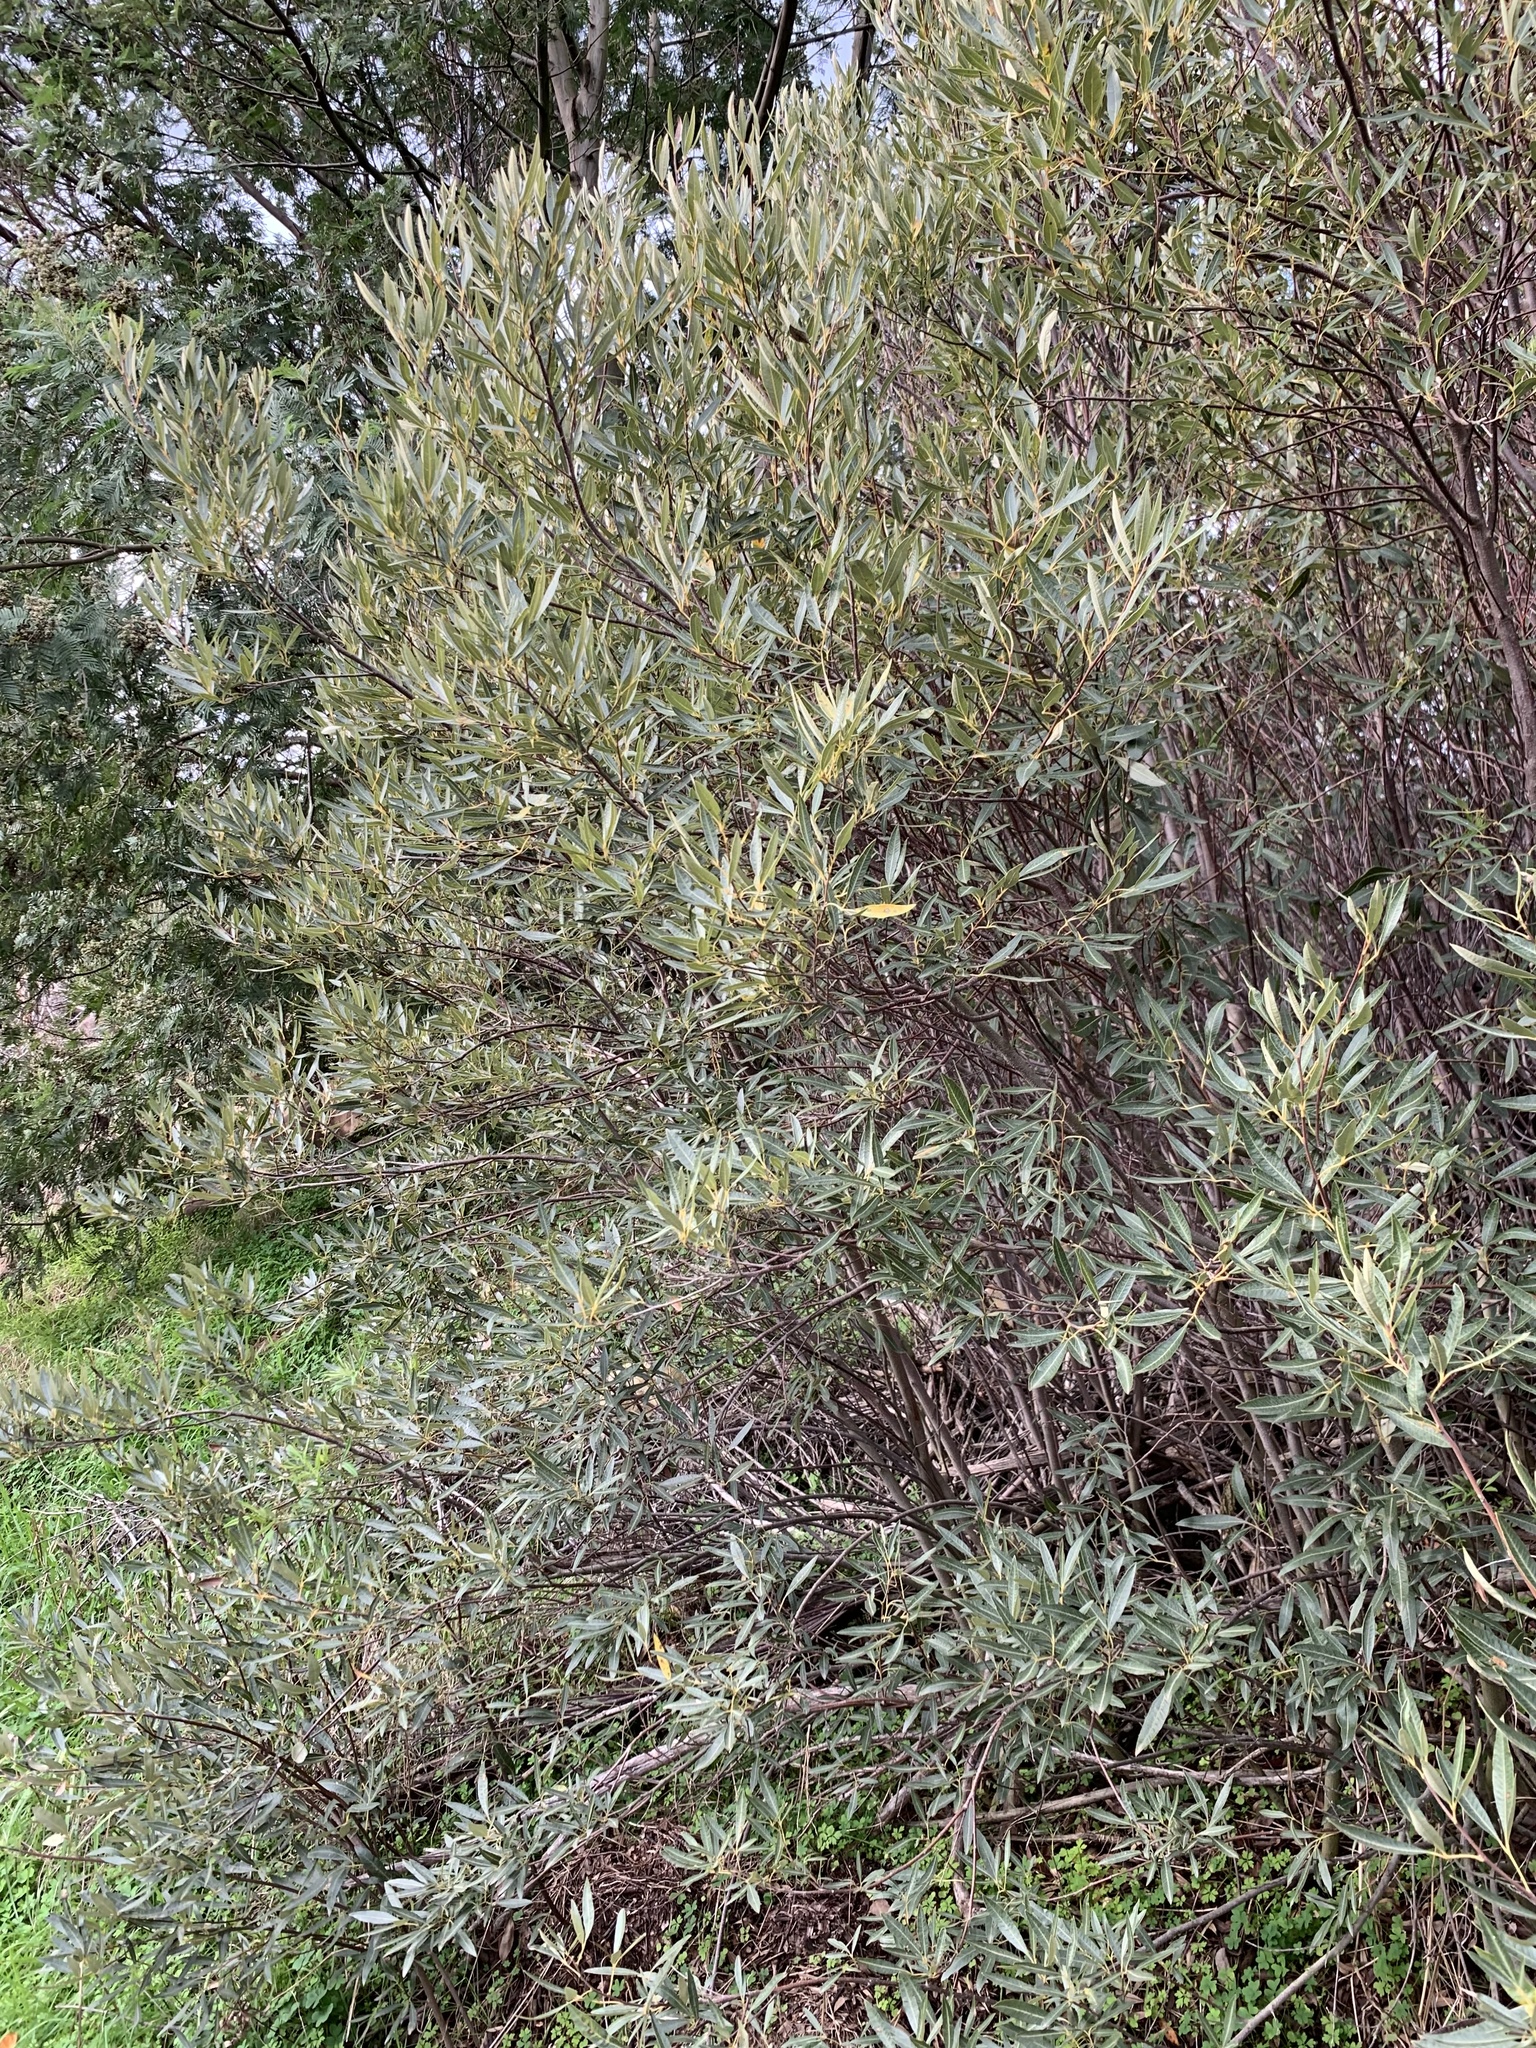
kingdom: Plantae
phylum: Tracheophyta
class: Magnoliopsida
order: Sapindales
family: Anacardiaceae
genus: Searsia
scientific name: Searsia angustifolia
